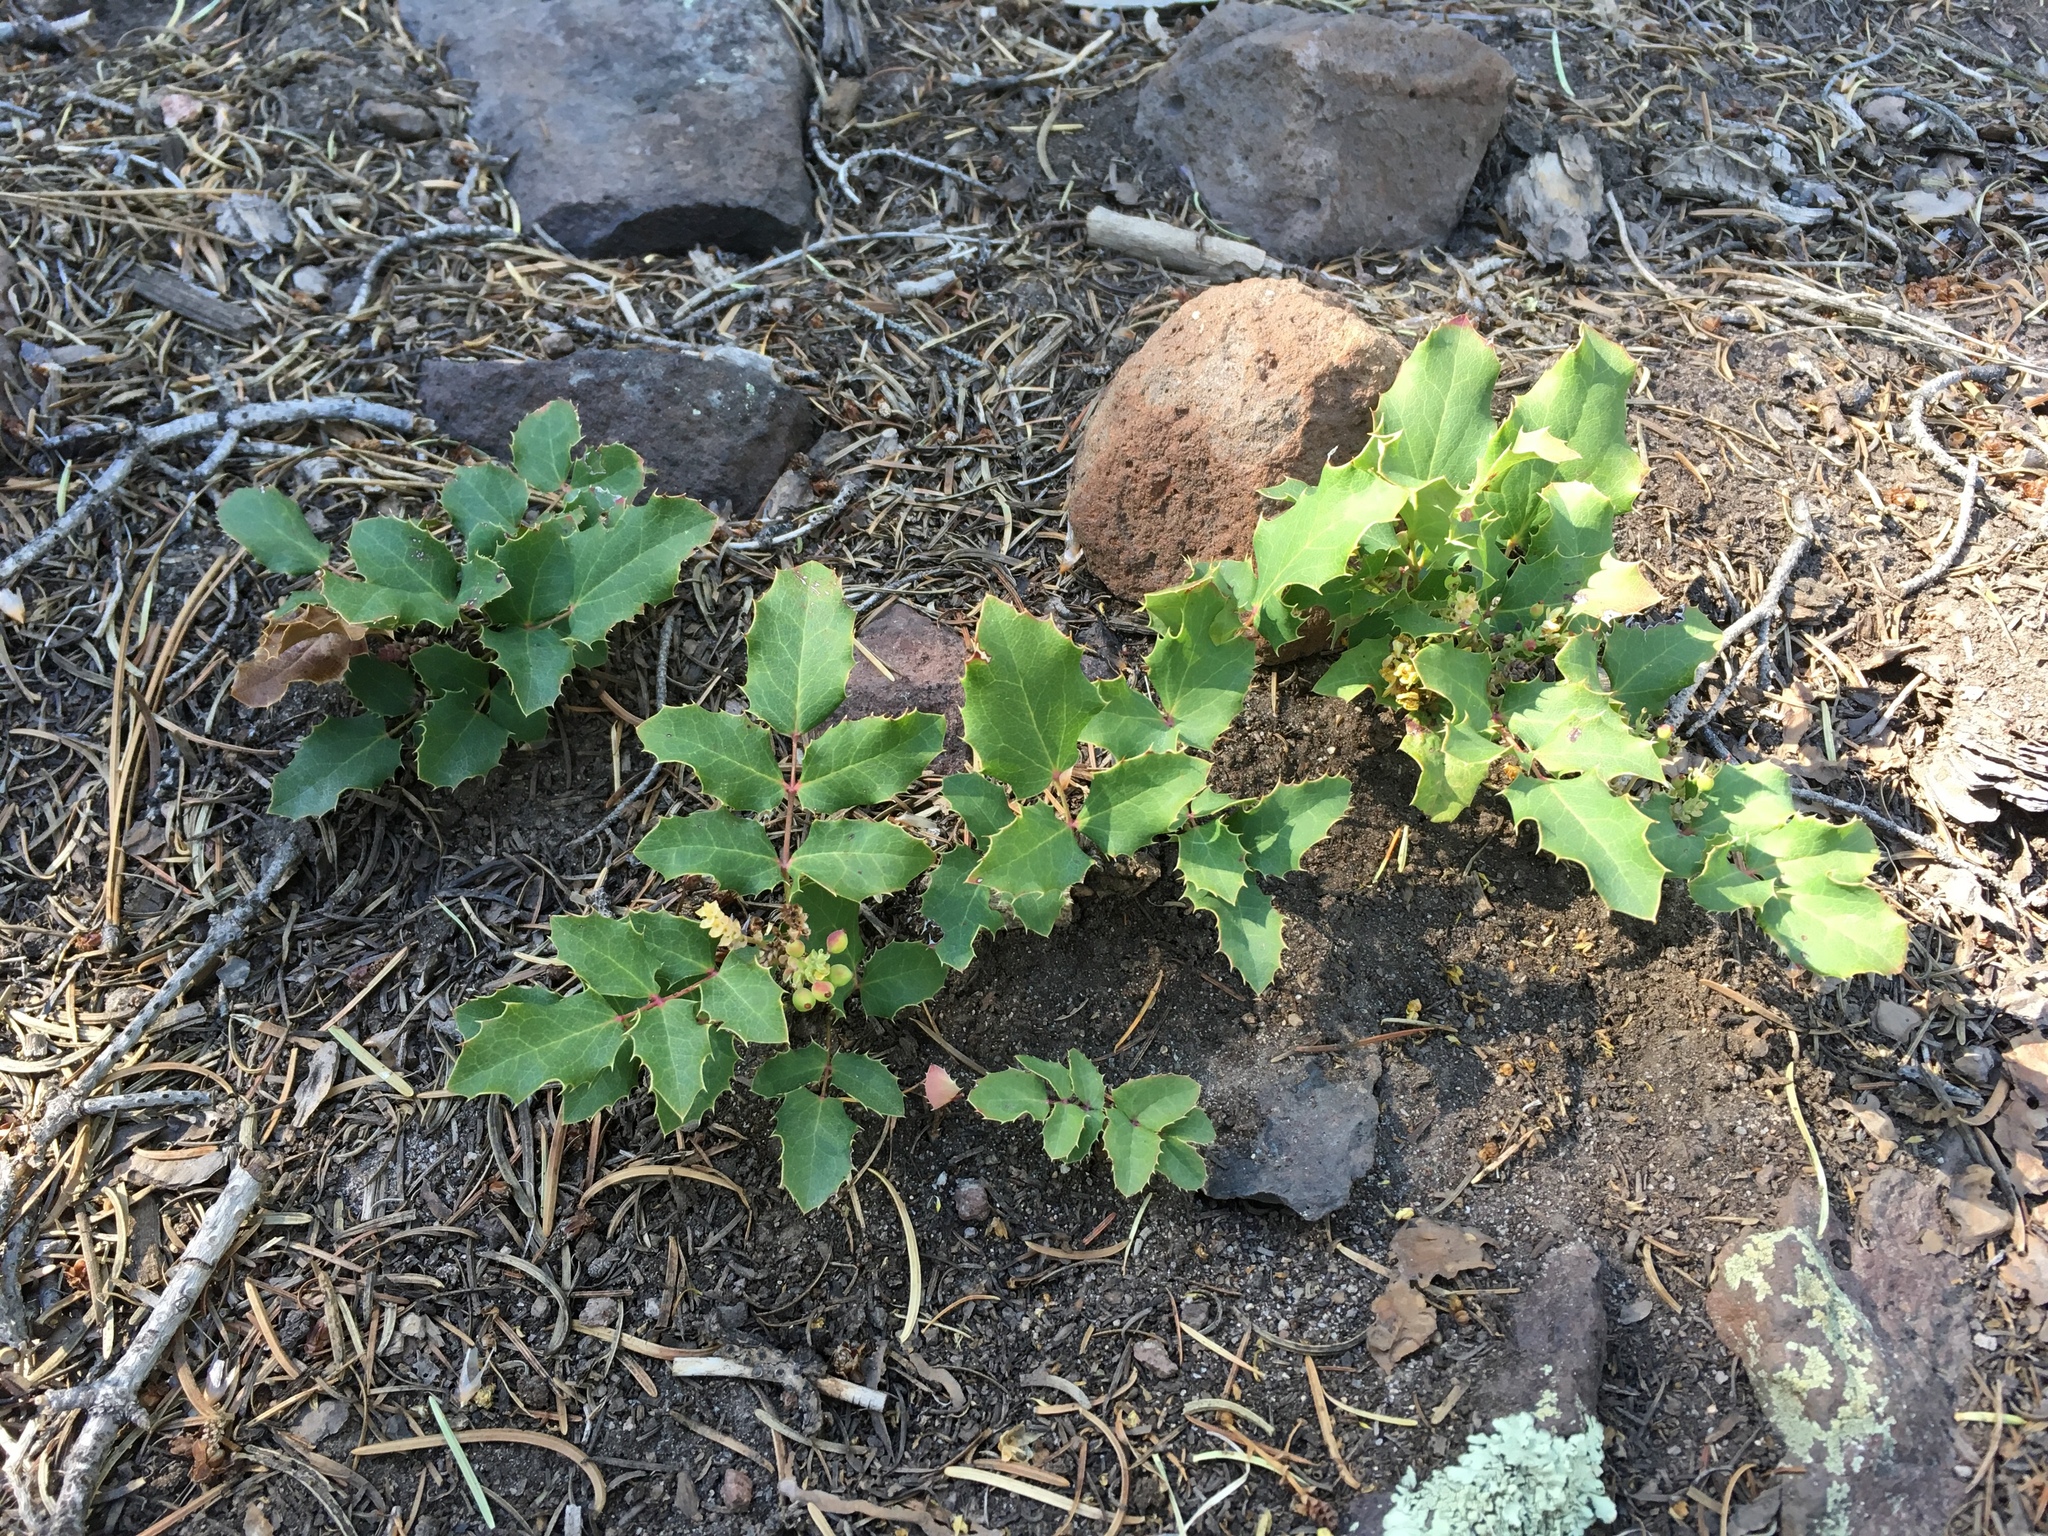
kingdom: Plantae
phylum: Tracheophyta
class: Magnoliopsida
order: Ranunculales
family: Berberidaceae
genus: Mahonia
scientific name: Mahonia repens
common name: Creeping oregon-grape
